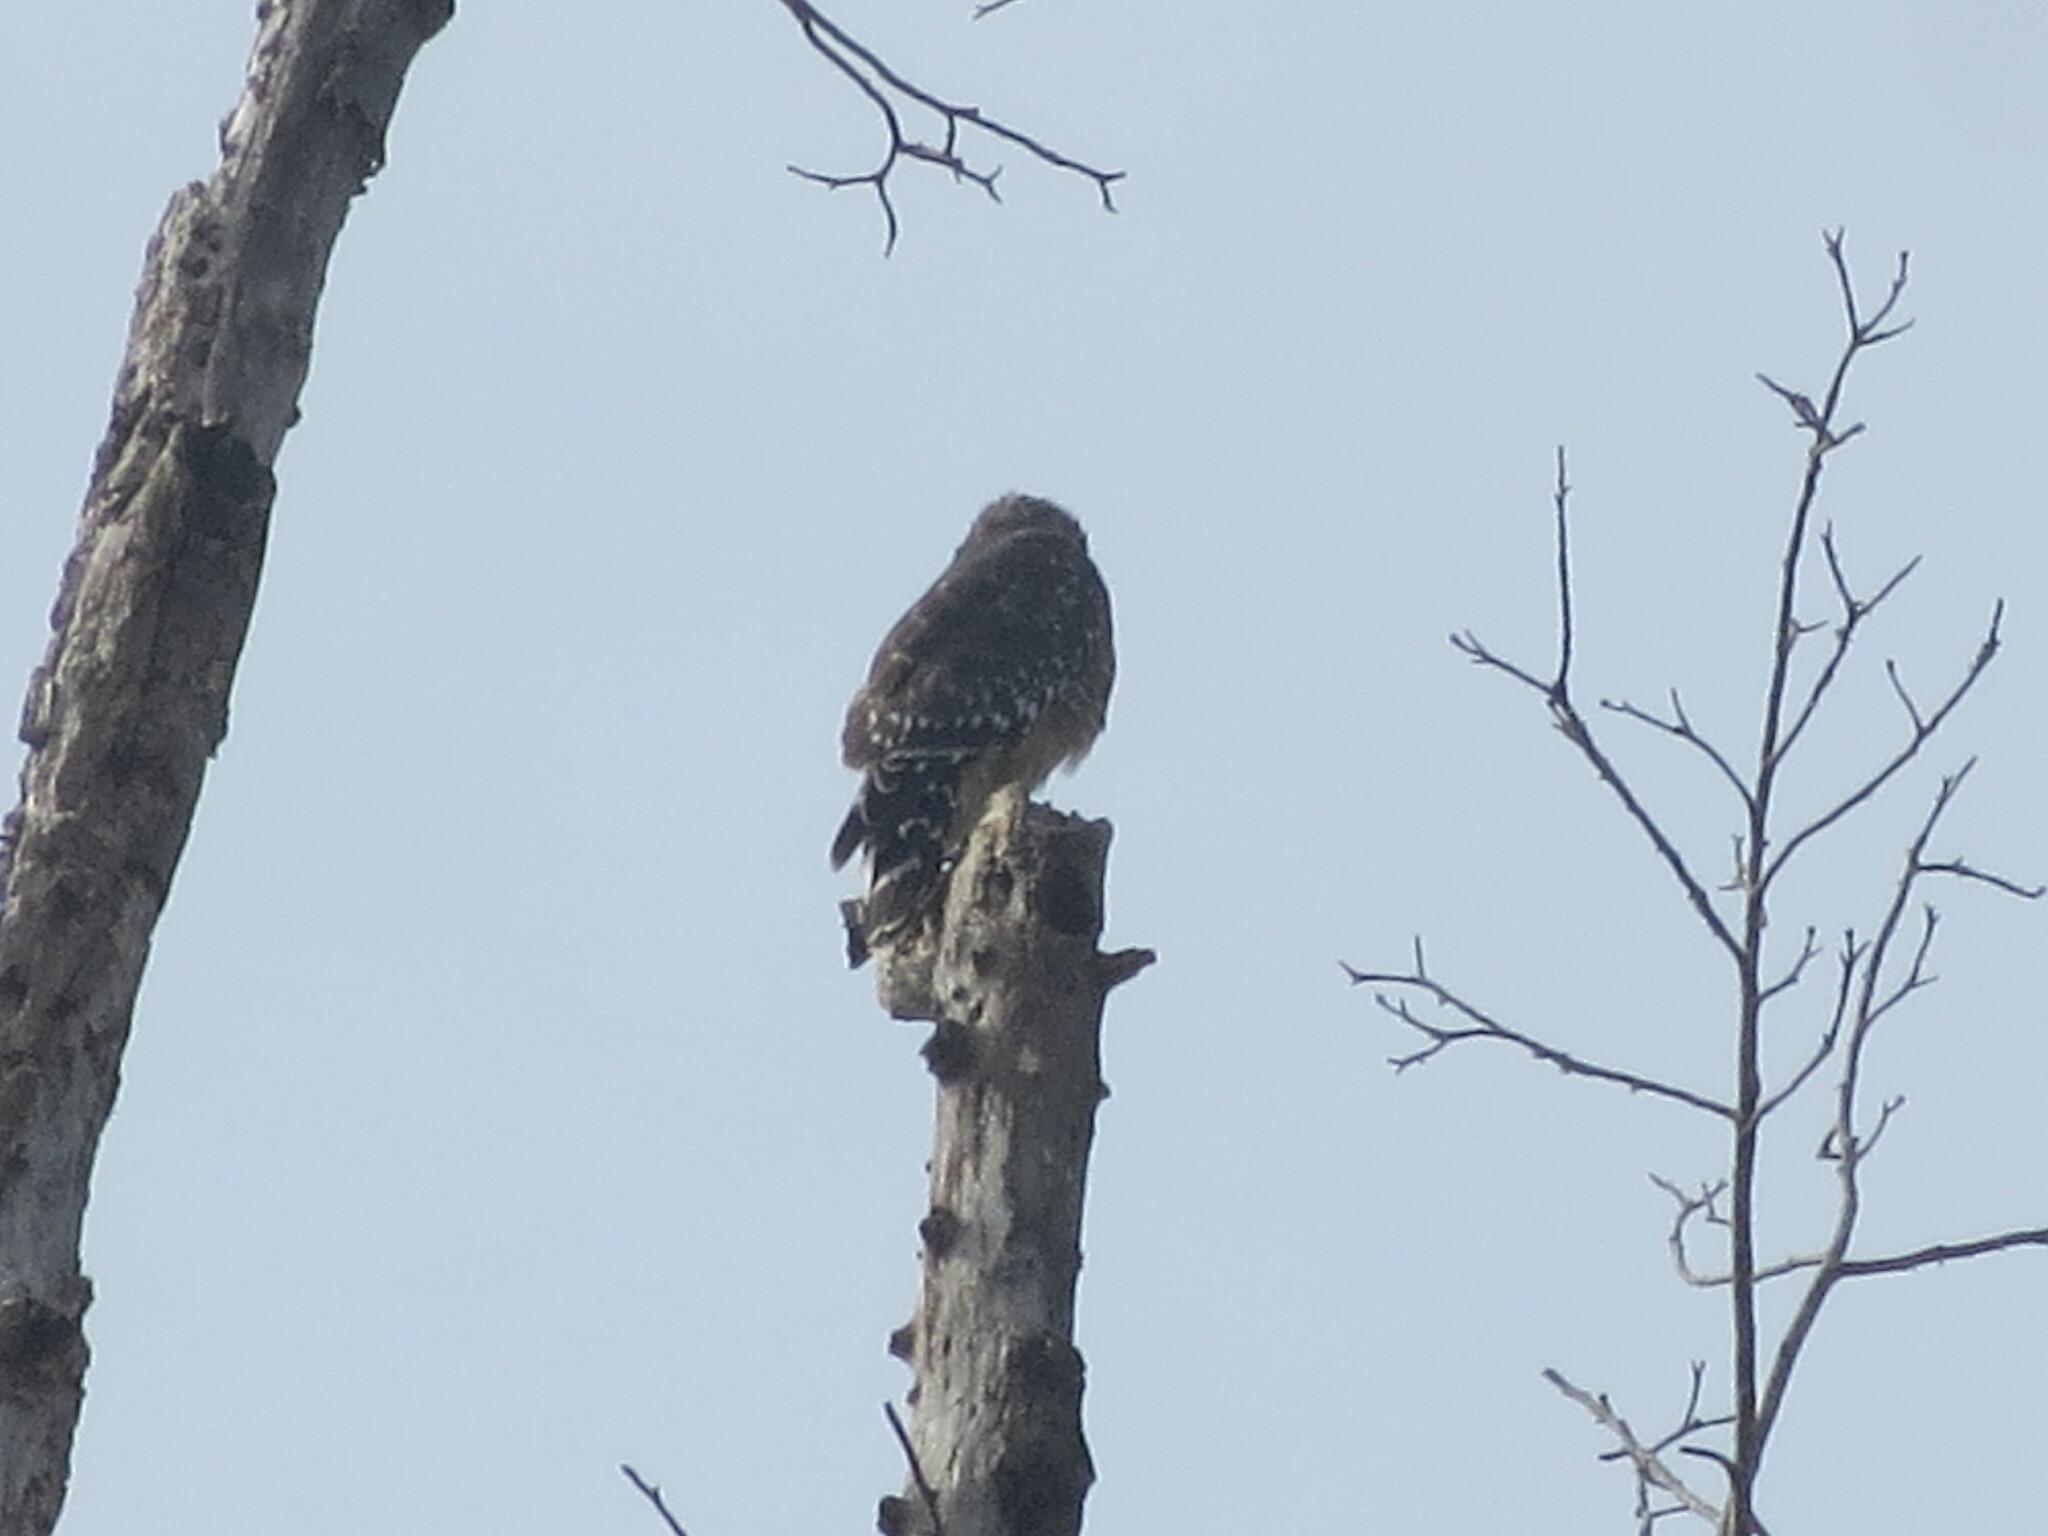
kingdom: Animalia
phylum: Chordata
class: Aves
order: Accipitriformes
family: Accipitridae
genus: Buteo
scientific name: Buteo lineatus
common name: Red-shouldered hawk
